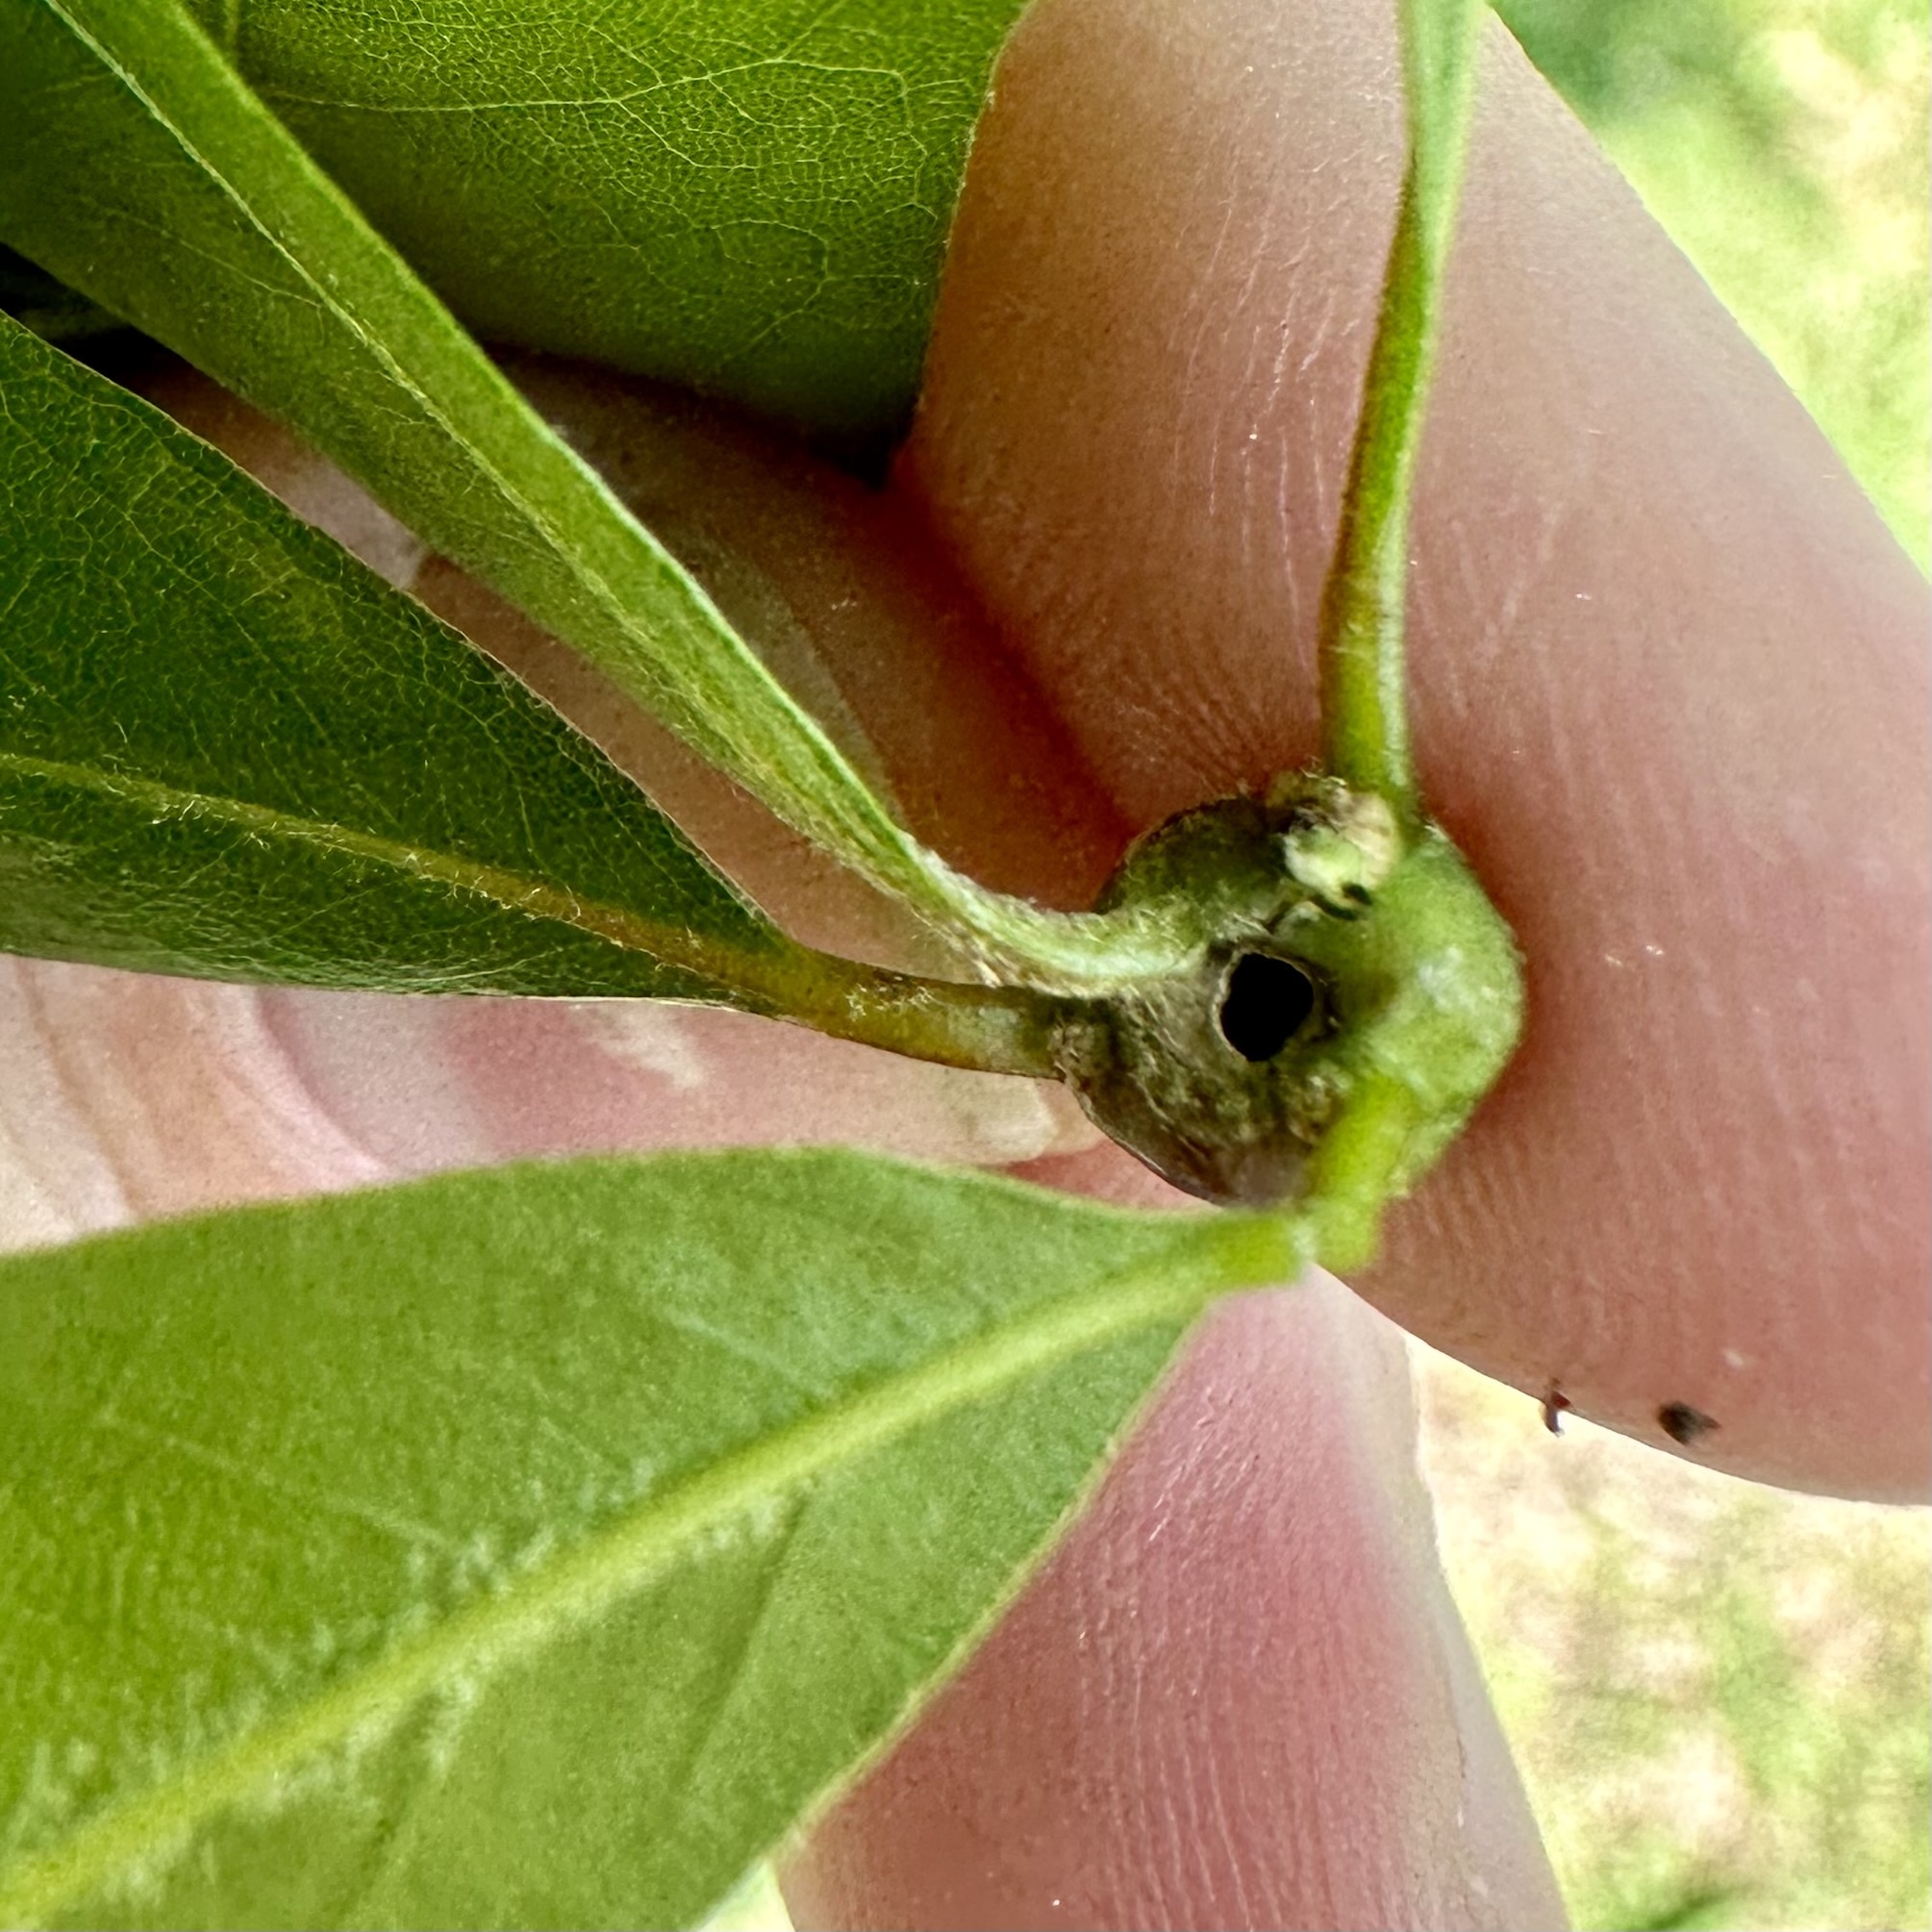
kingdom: Animalia
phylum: Arthropoda
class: Insecta
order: Hymenoptera
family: Cynipidae
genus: Zapatella
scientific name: Zapatella quercusphellos
